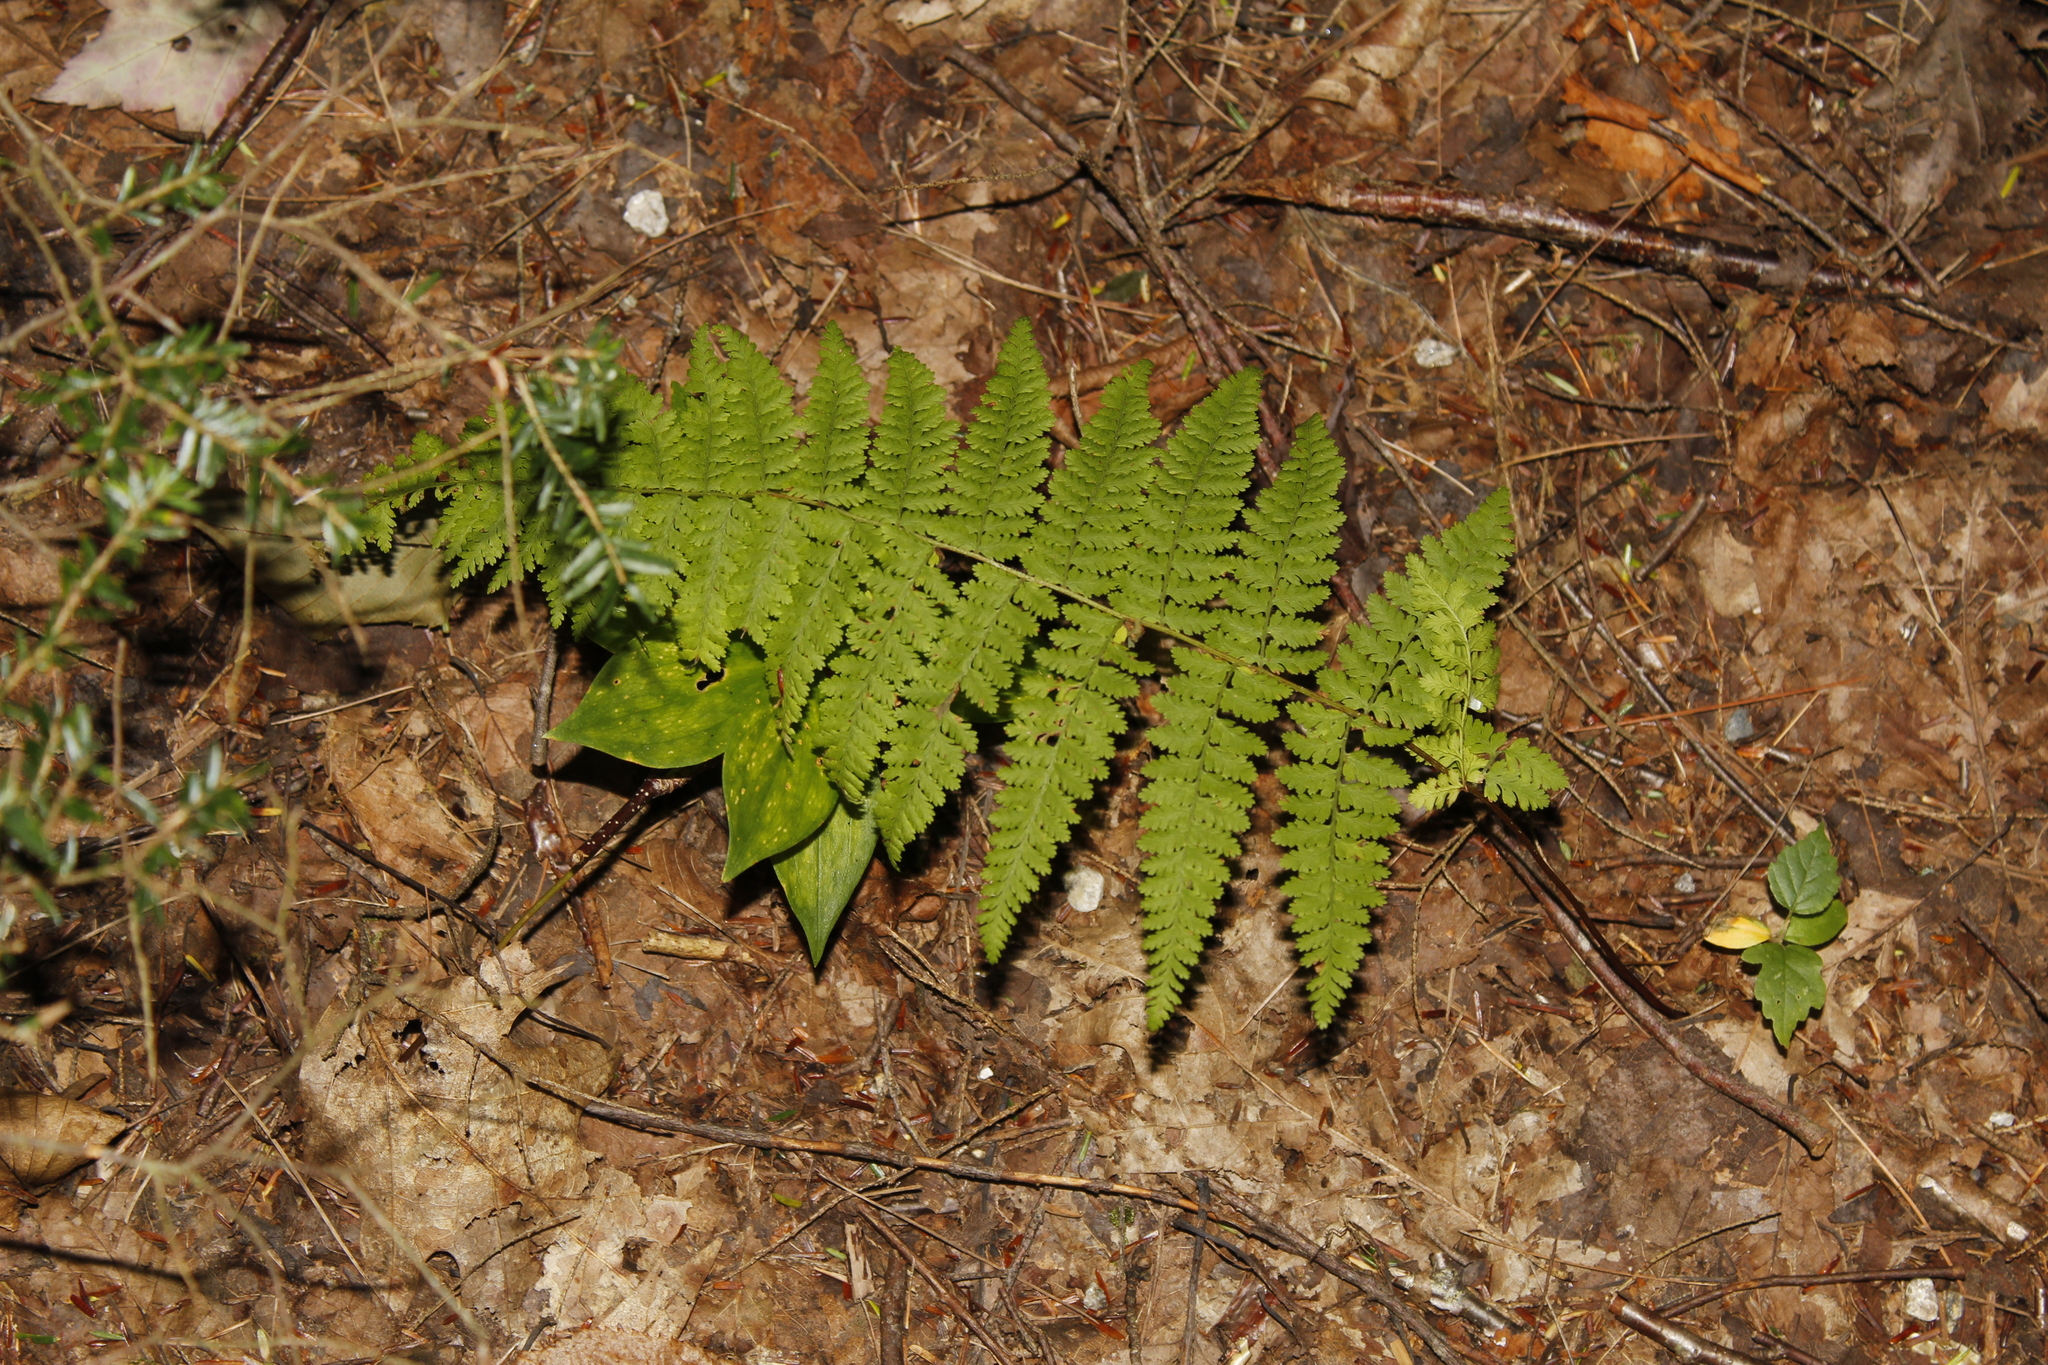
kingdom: Plantae
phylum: Tracheophyta
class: Polypodiopsida
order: Polypodiales
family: Dennstaedtiaceae
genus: Sitobolium
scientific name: Sitobolium punctilobum
